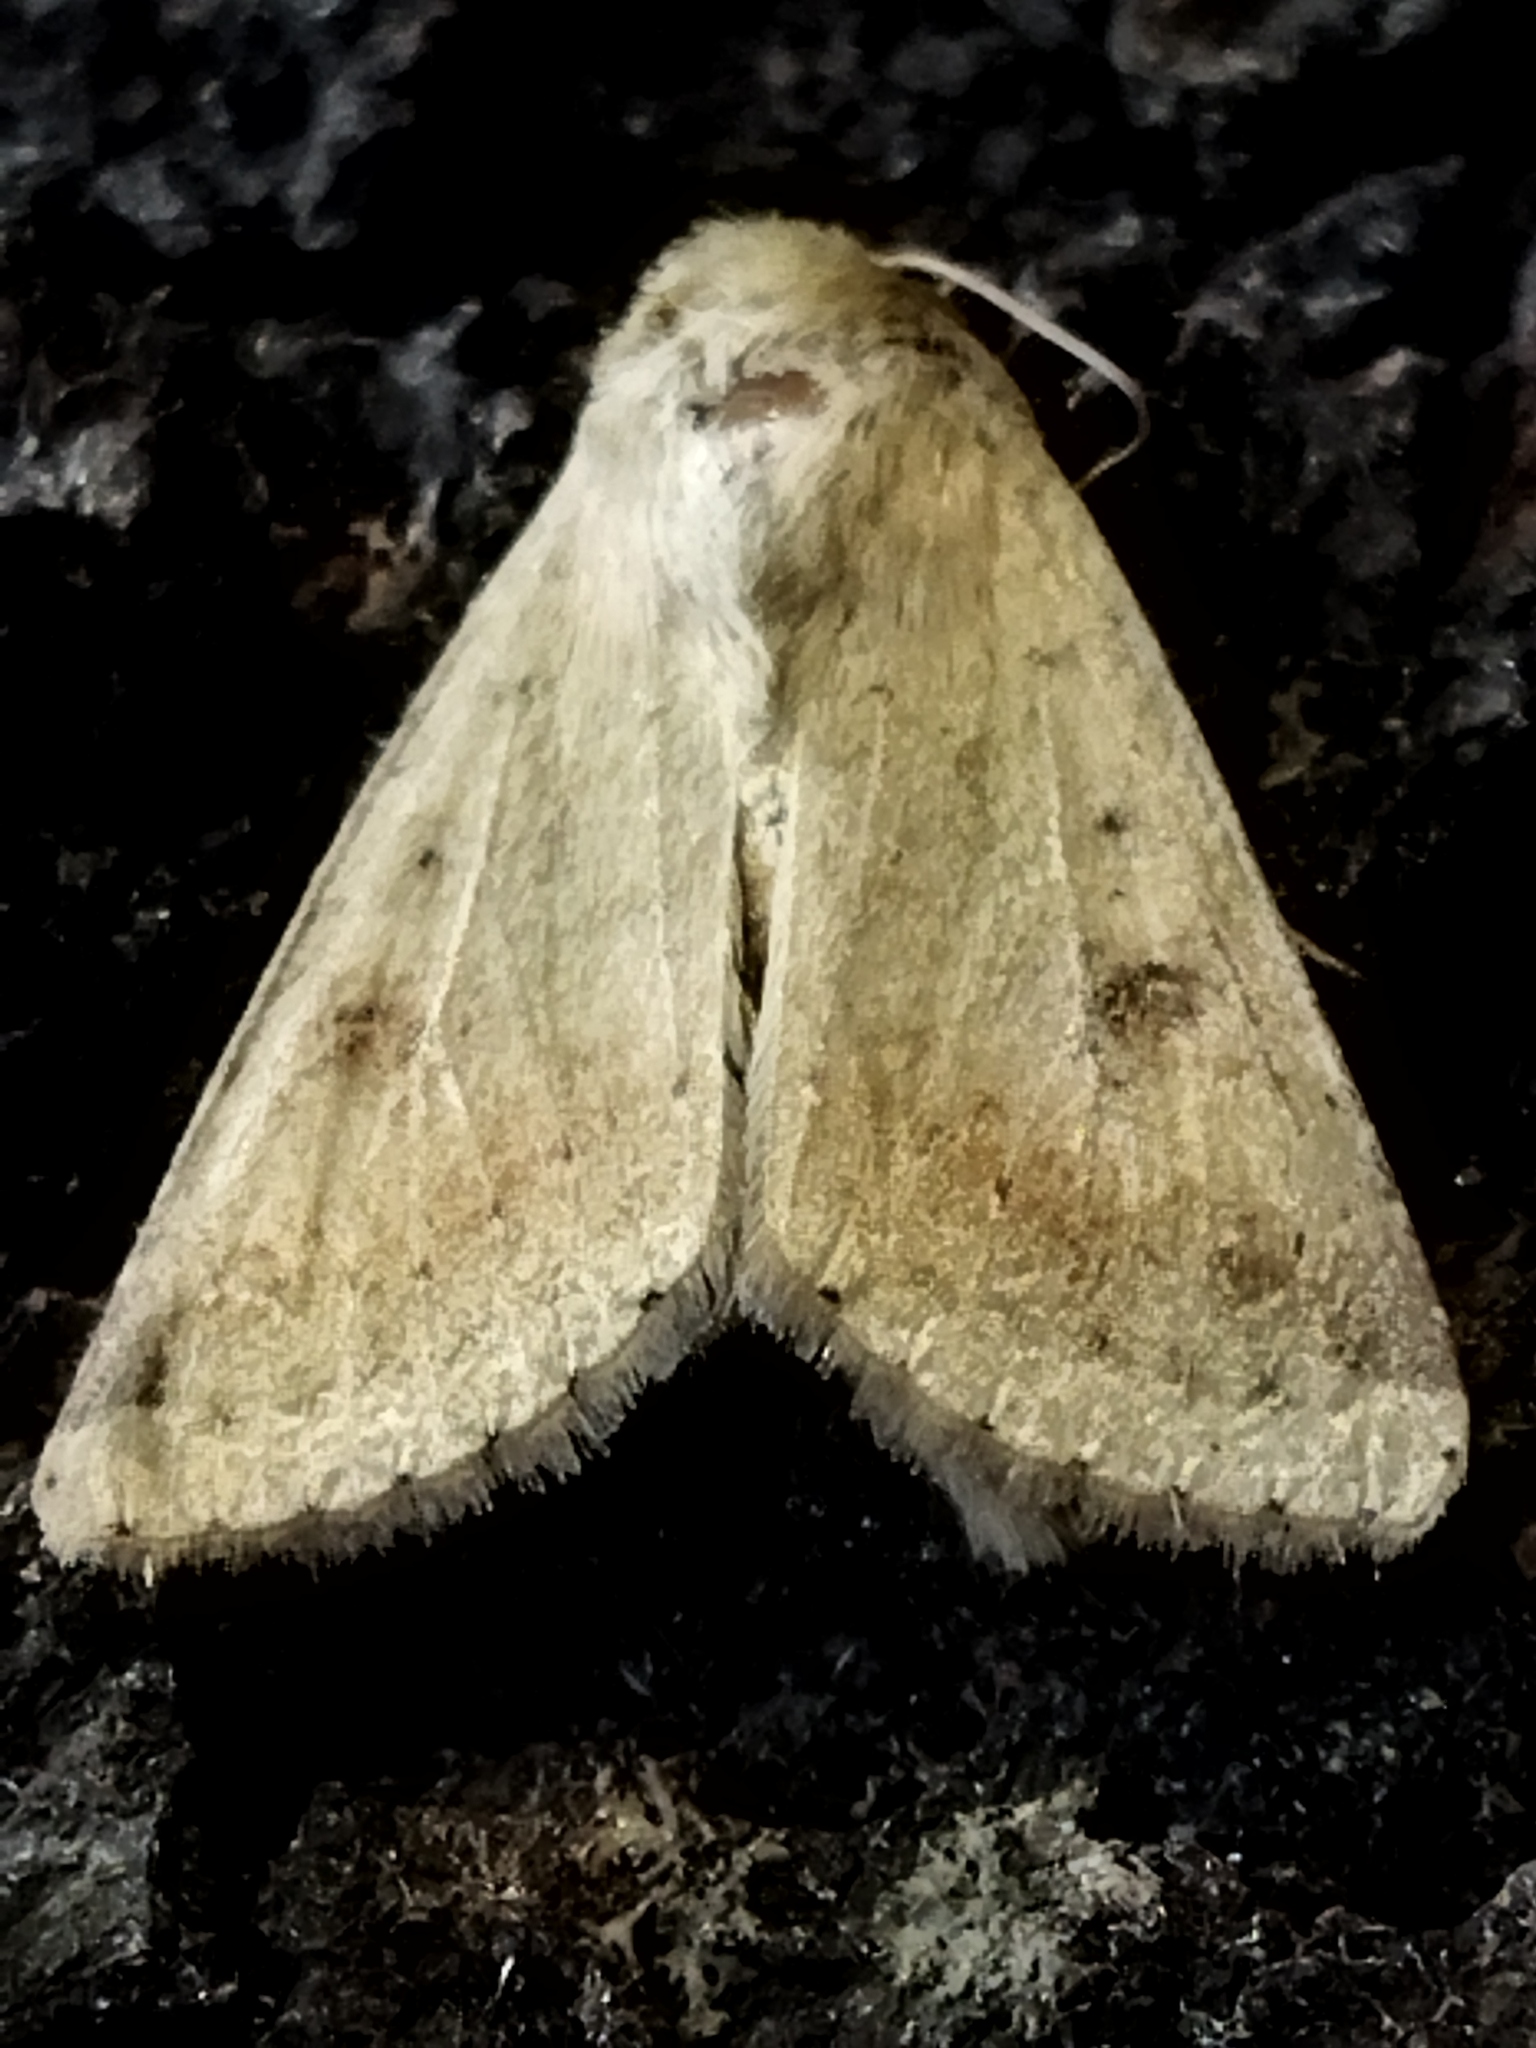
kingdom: Animalia
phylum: Arthropoda
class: Insecta
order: Lepidoptera
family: Noctuidae
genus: Helicoverpa
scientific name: Helicoverpa armigera
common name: Cotton bollworm
